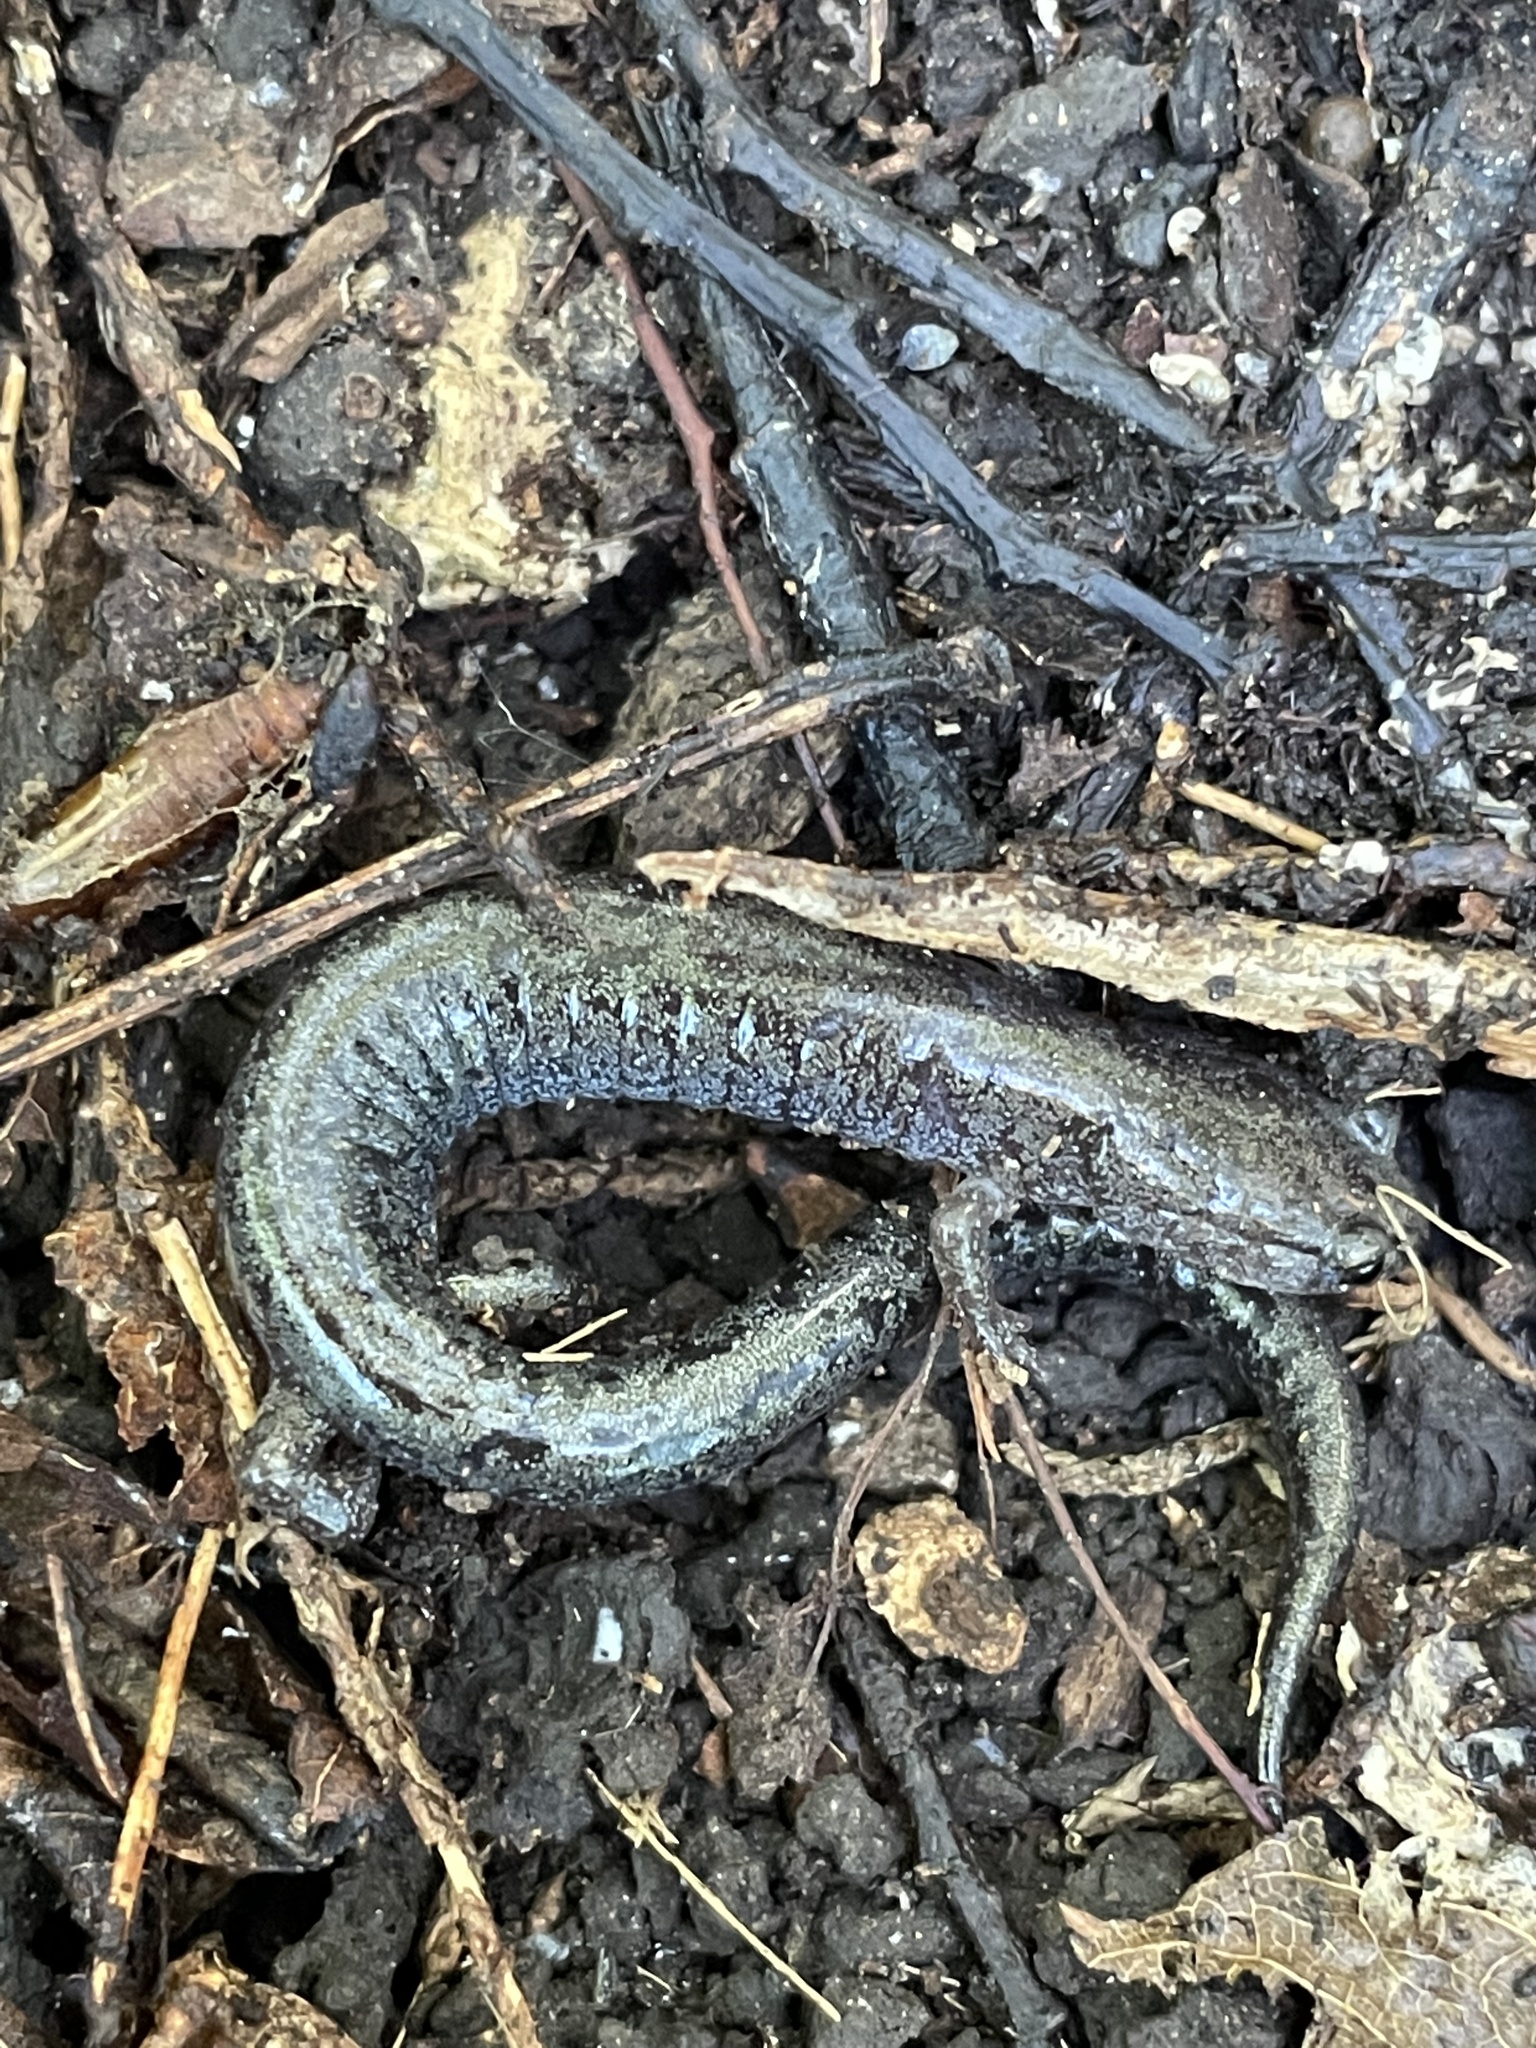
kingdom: Animalia
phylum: Chordata
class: Amphibia
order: Caudata
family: Plethodontidae
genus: Plethodon
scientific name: Plethodon dorsalis
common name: Northern zigzag salamander
